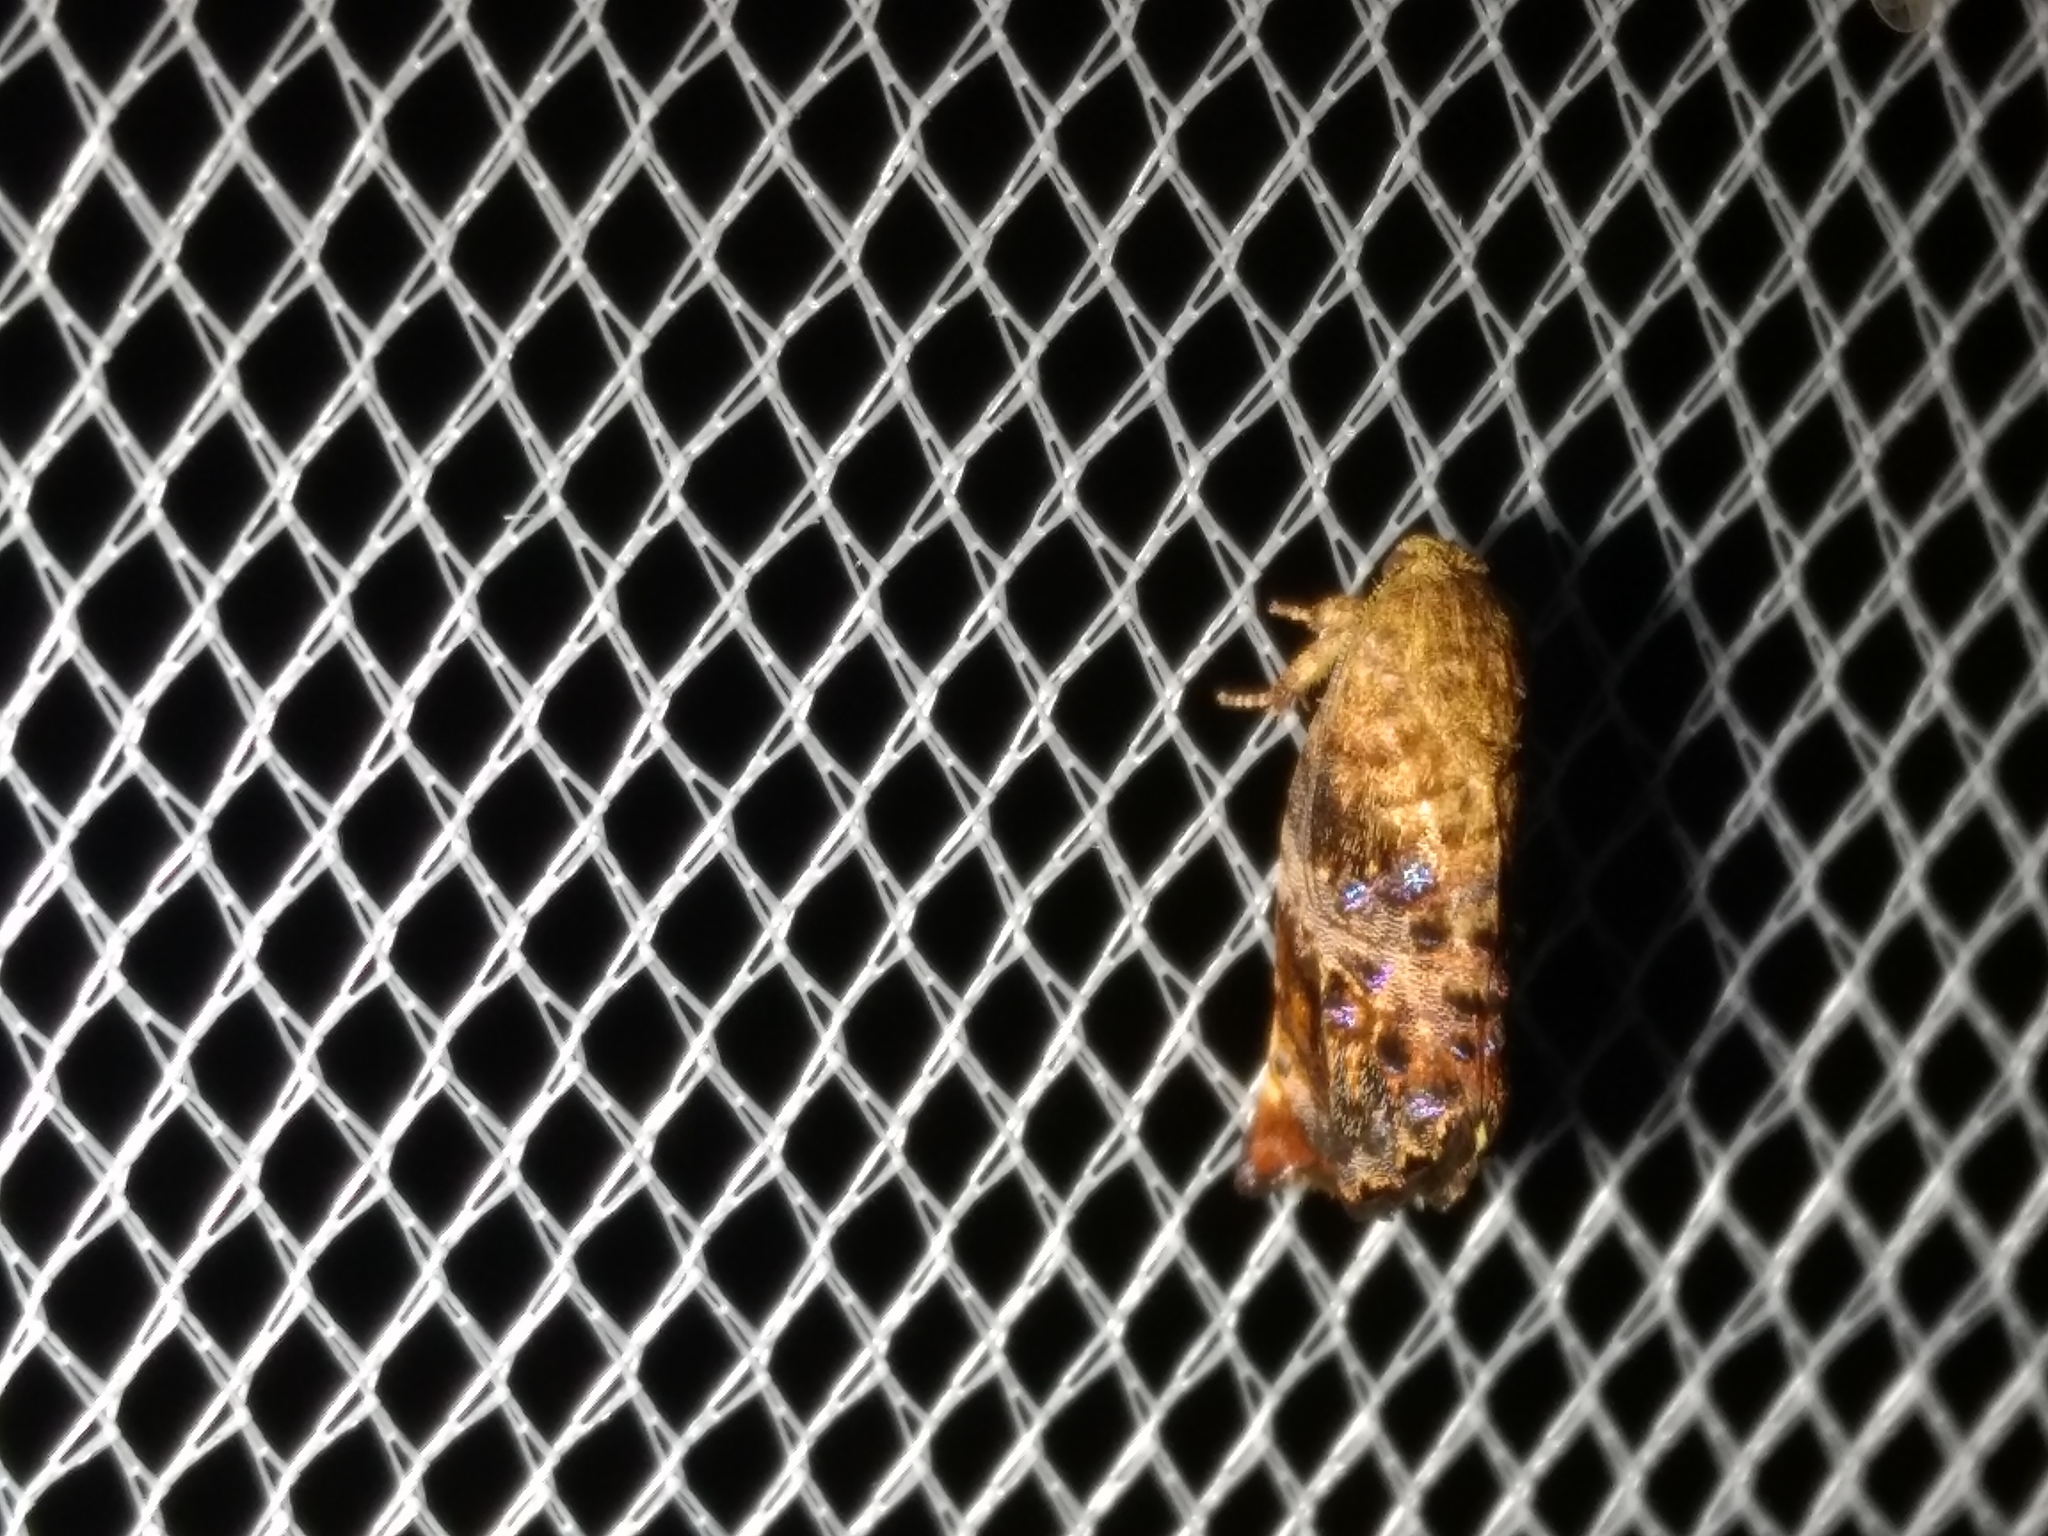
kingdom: Animalia
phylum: Arthropoda
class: Insecta
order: Lepidoptera
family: Depressariidae
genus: Peritropha
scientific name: Peritropha oligodrachma
